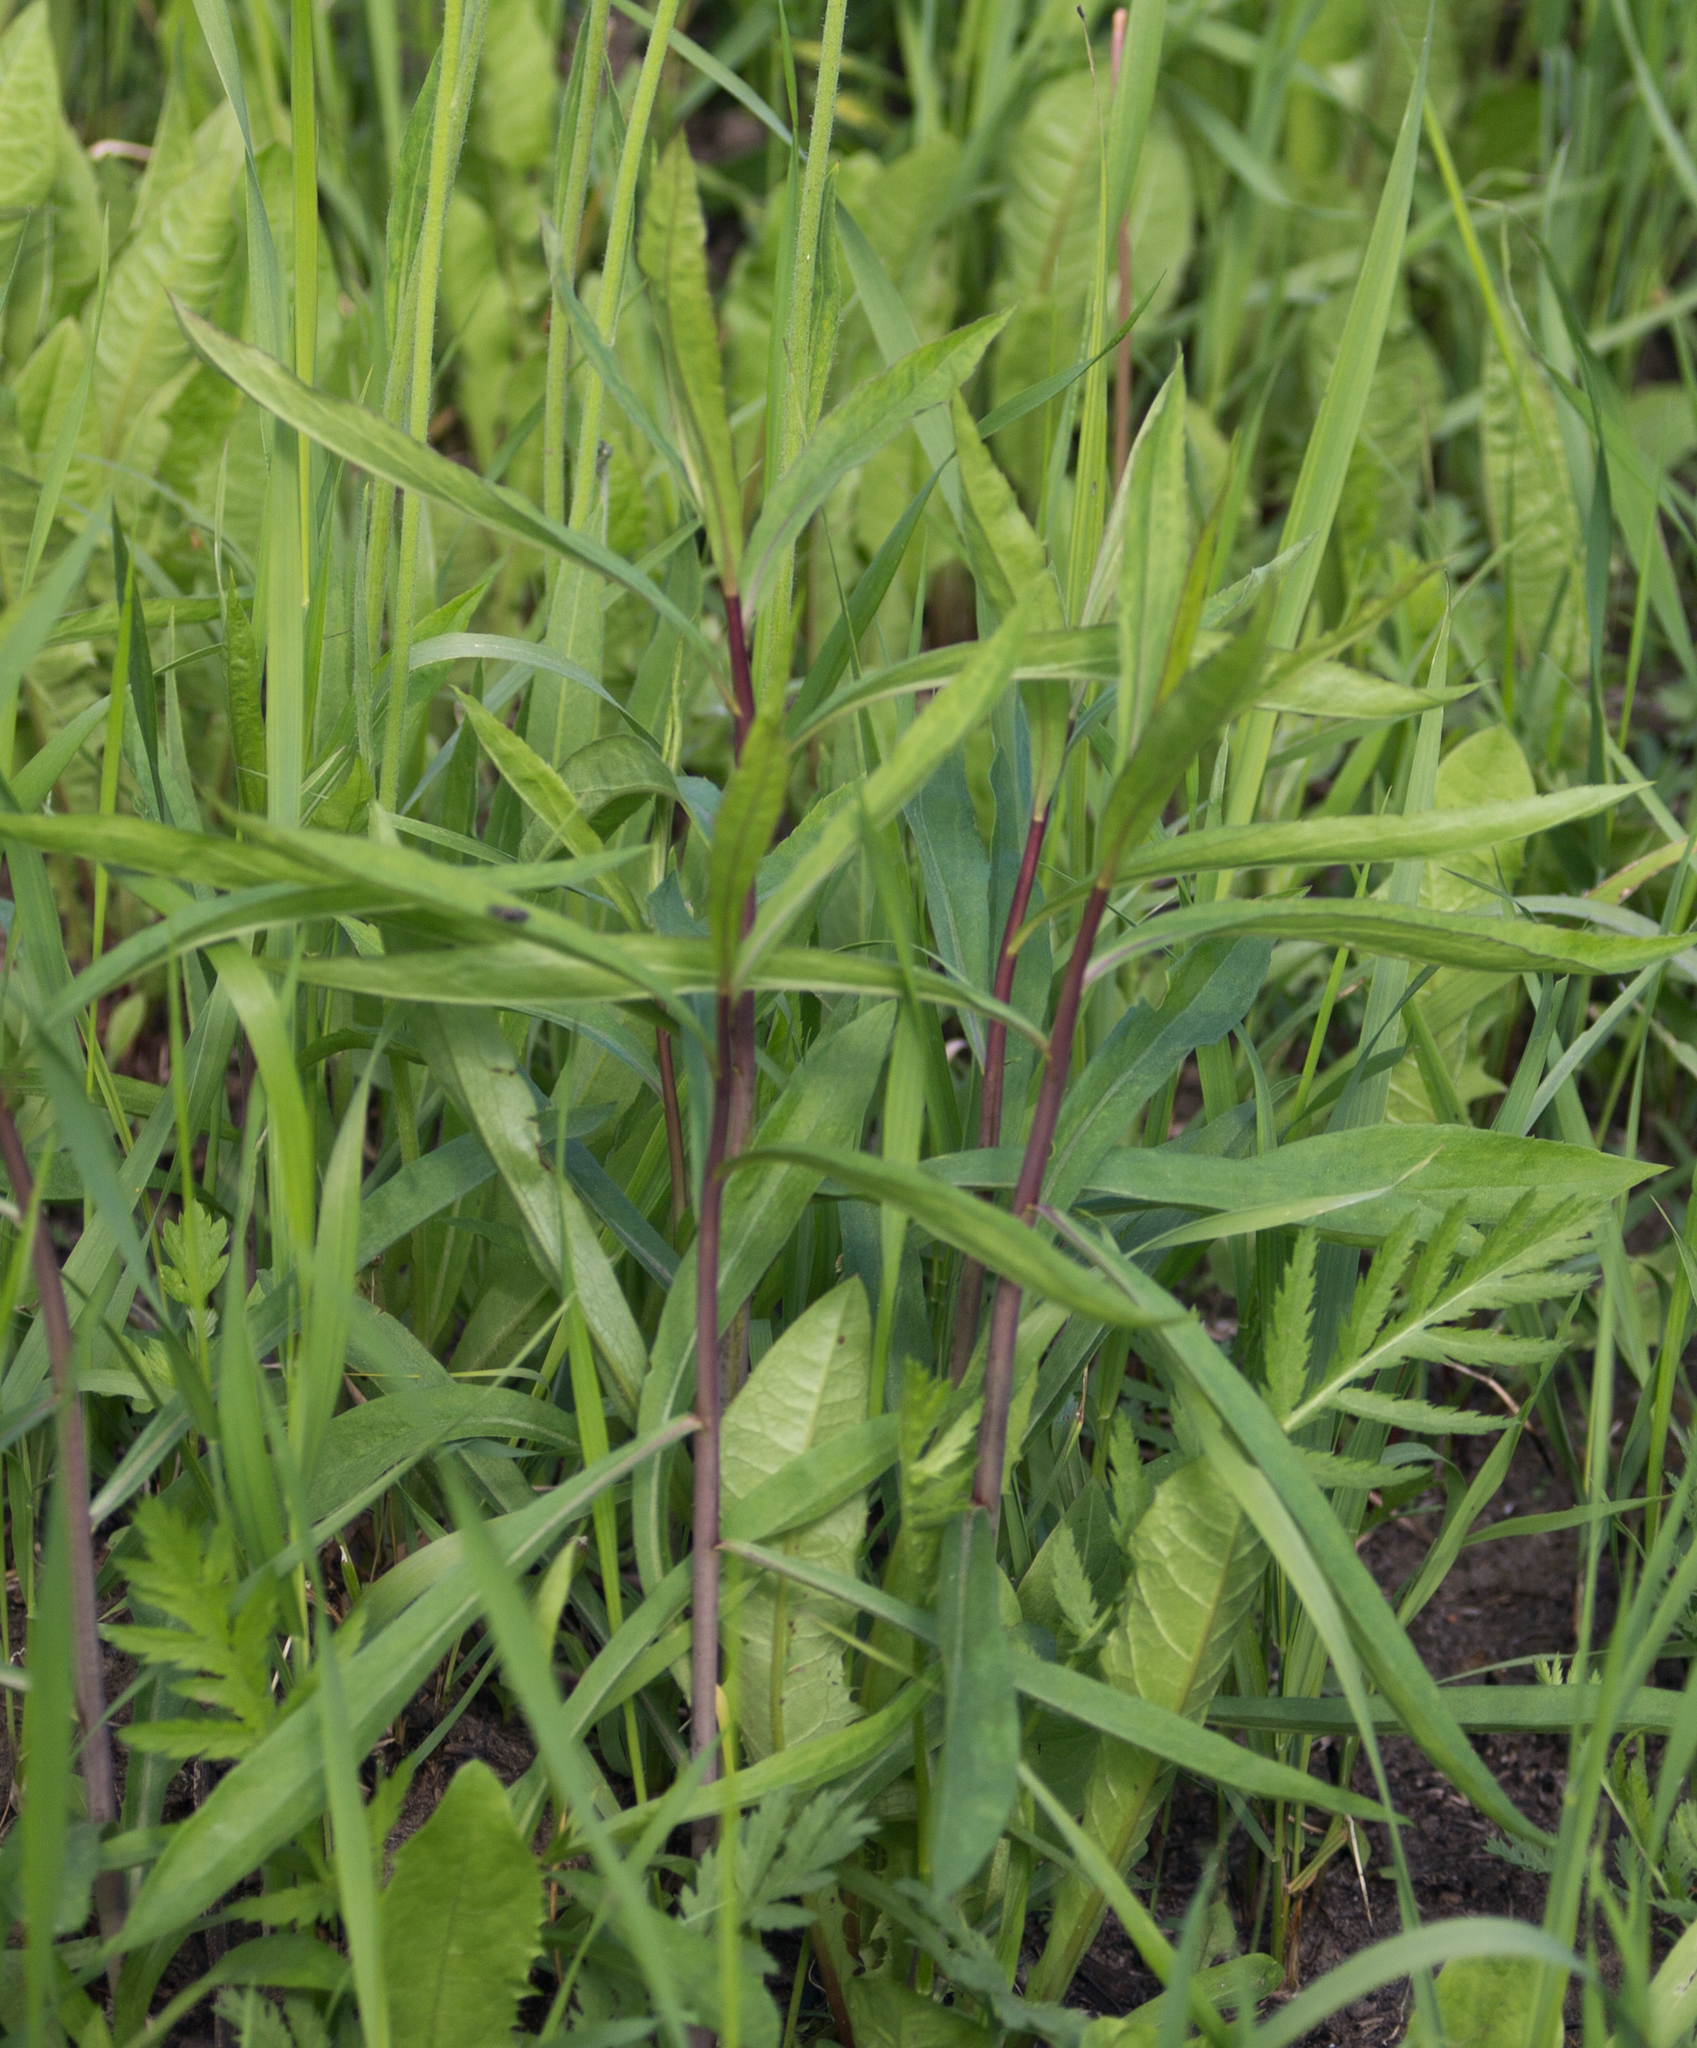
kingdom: Plantae
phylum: Tracheophyta
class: Magnoliopsida
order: Asterales
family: Asteraceae
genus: Solidago
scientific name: Solidago gigantea
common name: Giant goldenrod
